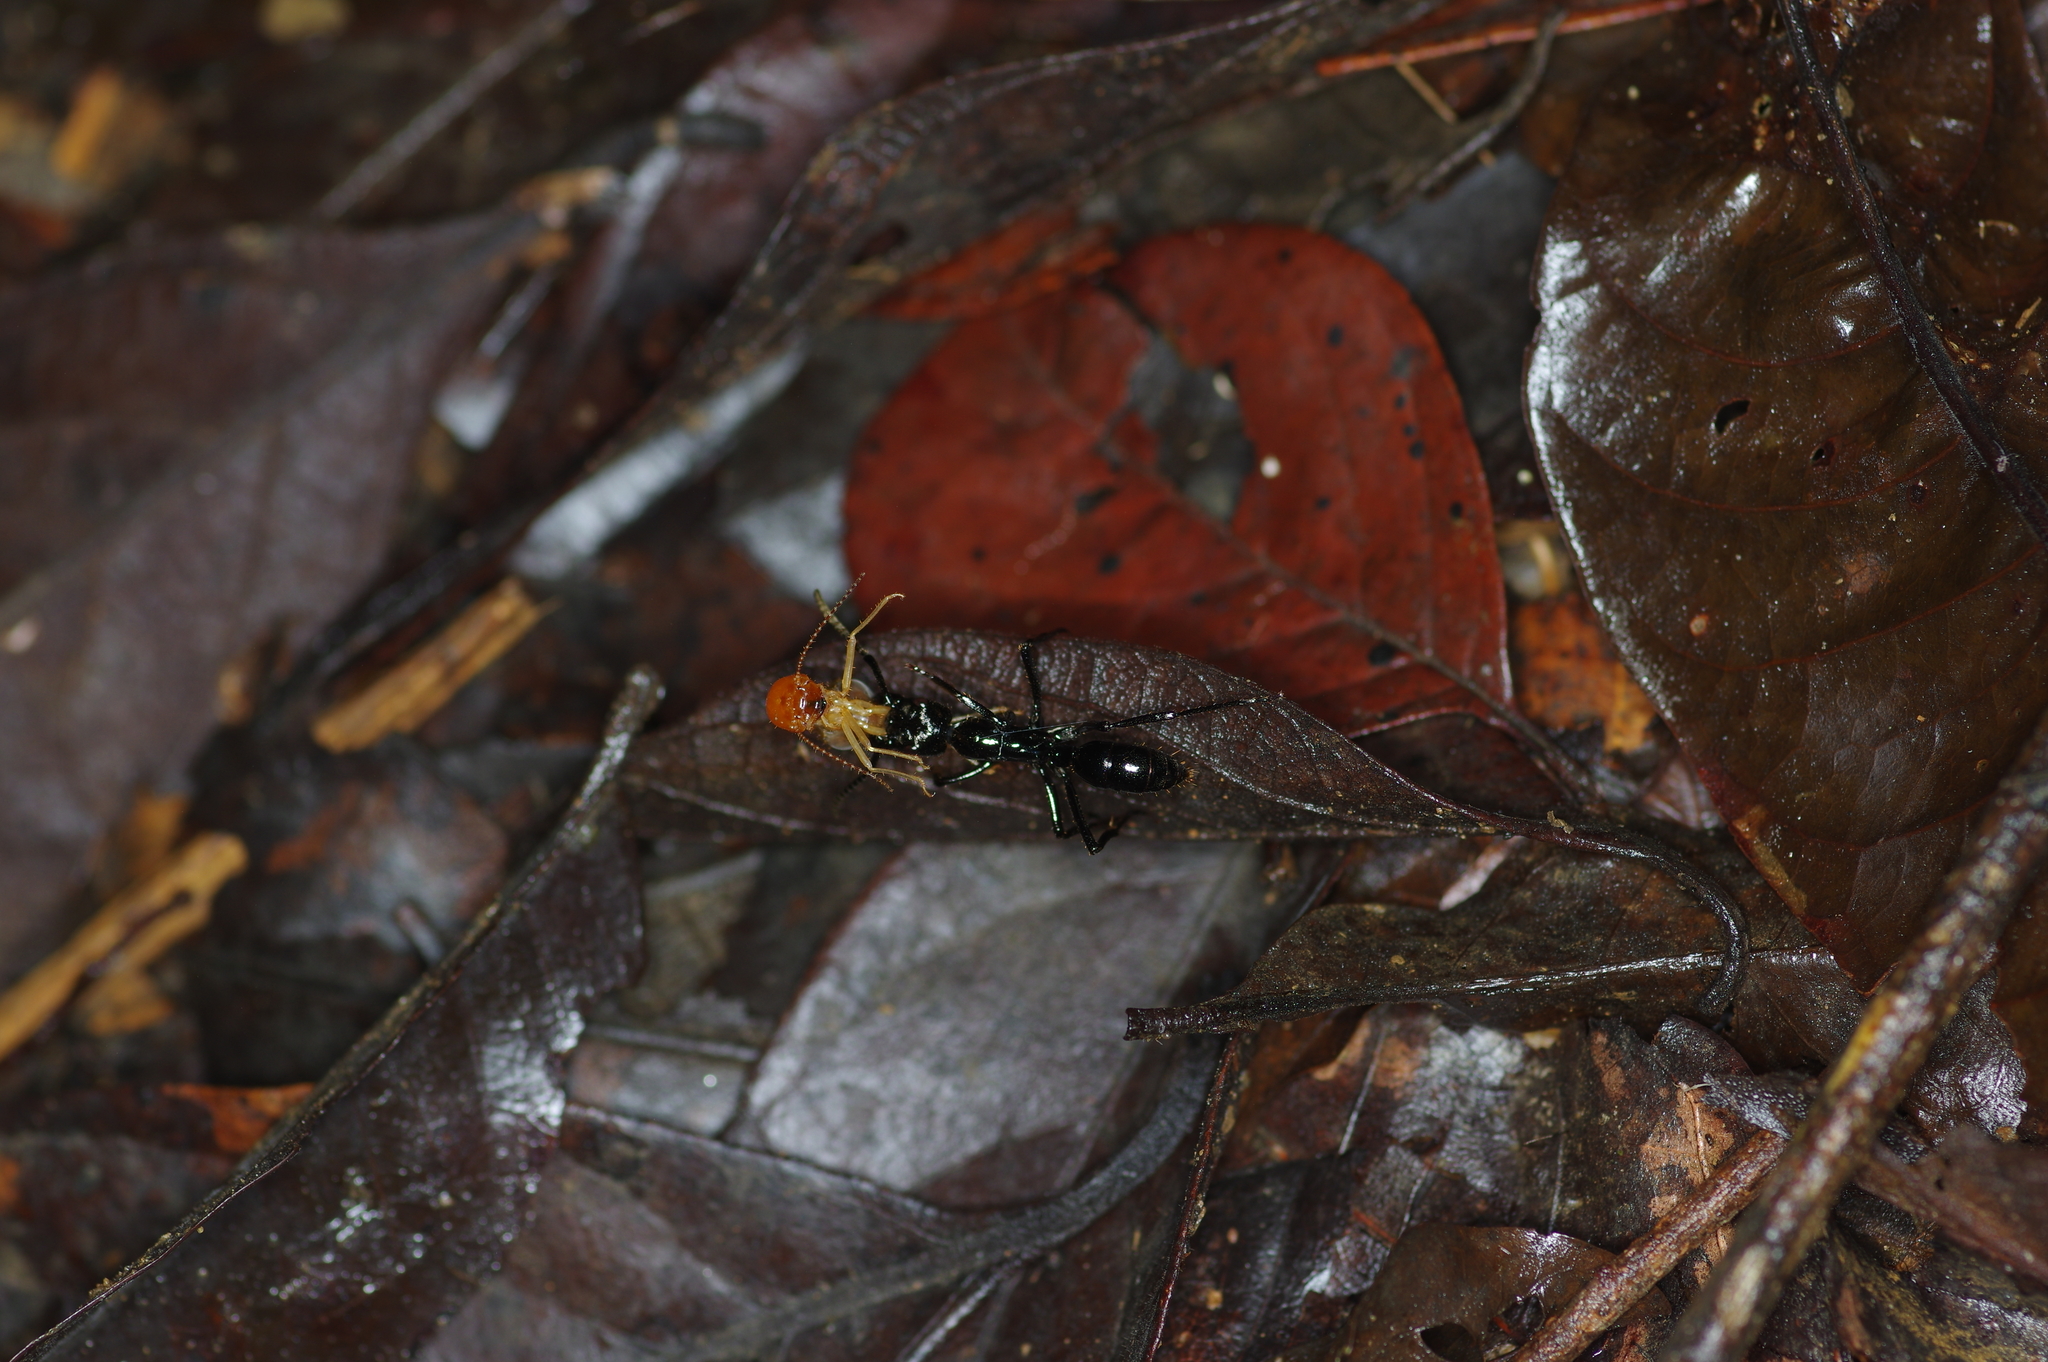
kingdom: Animalia
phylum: Arthropoda
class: Insecta
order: Hymenoptera
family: Formicidae
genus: Pachycondyla
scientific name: Pachycondyla commutata
